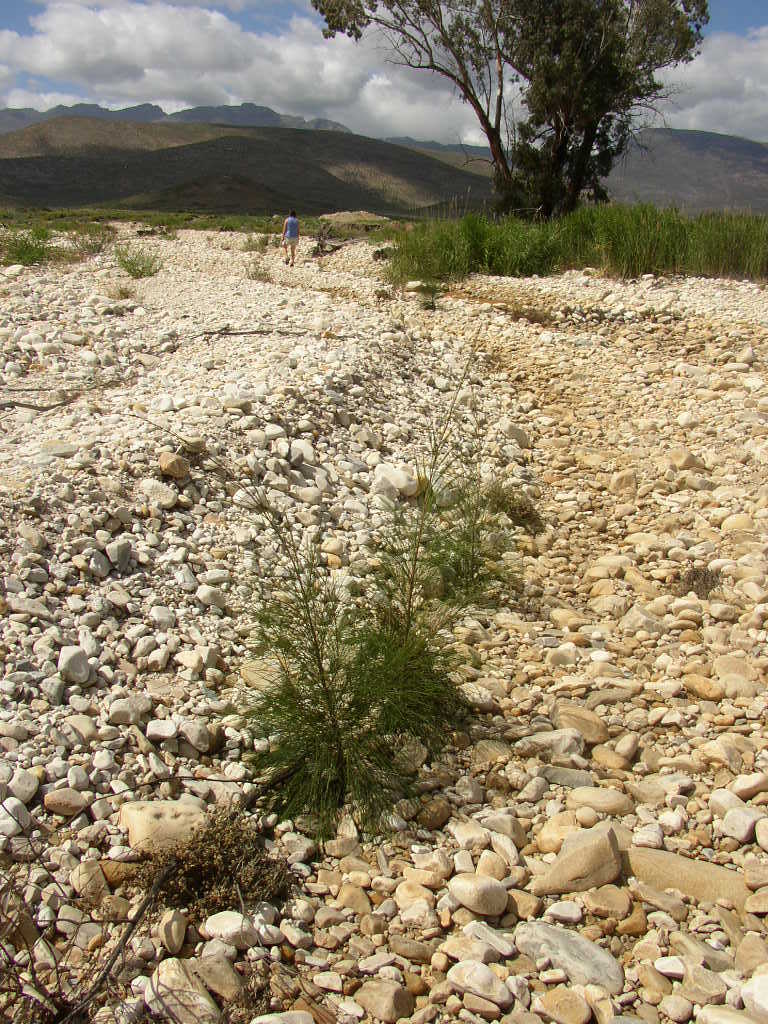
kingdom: Plantae
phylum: Tracheophyta
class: Magnoliopsida
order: Fagales
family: Casuarinaceae
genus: Casuarina
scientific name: Casuarina cunninghamiana
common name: River sheoak
